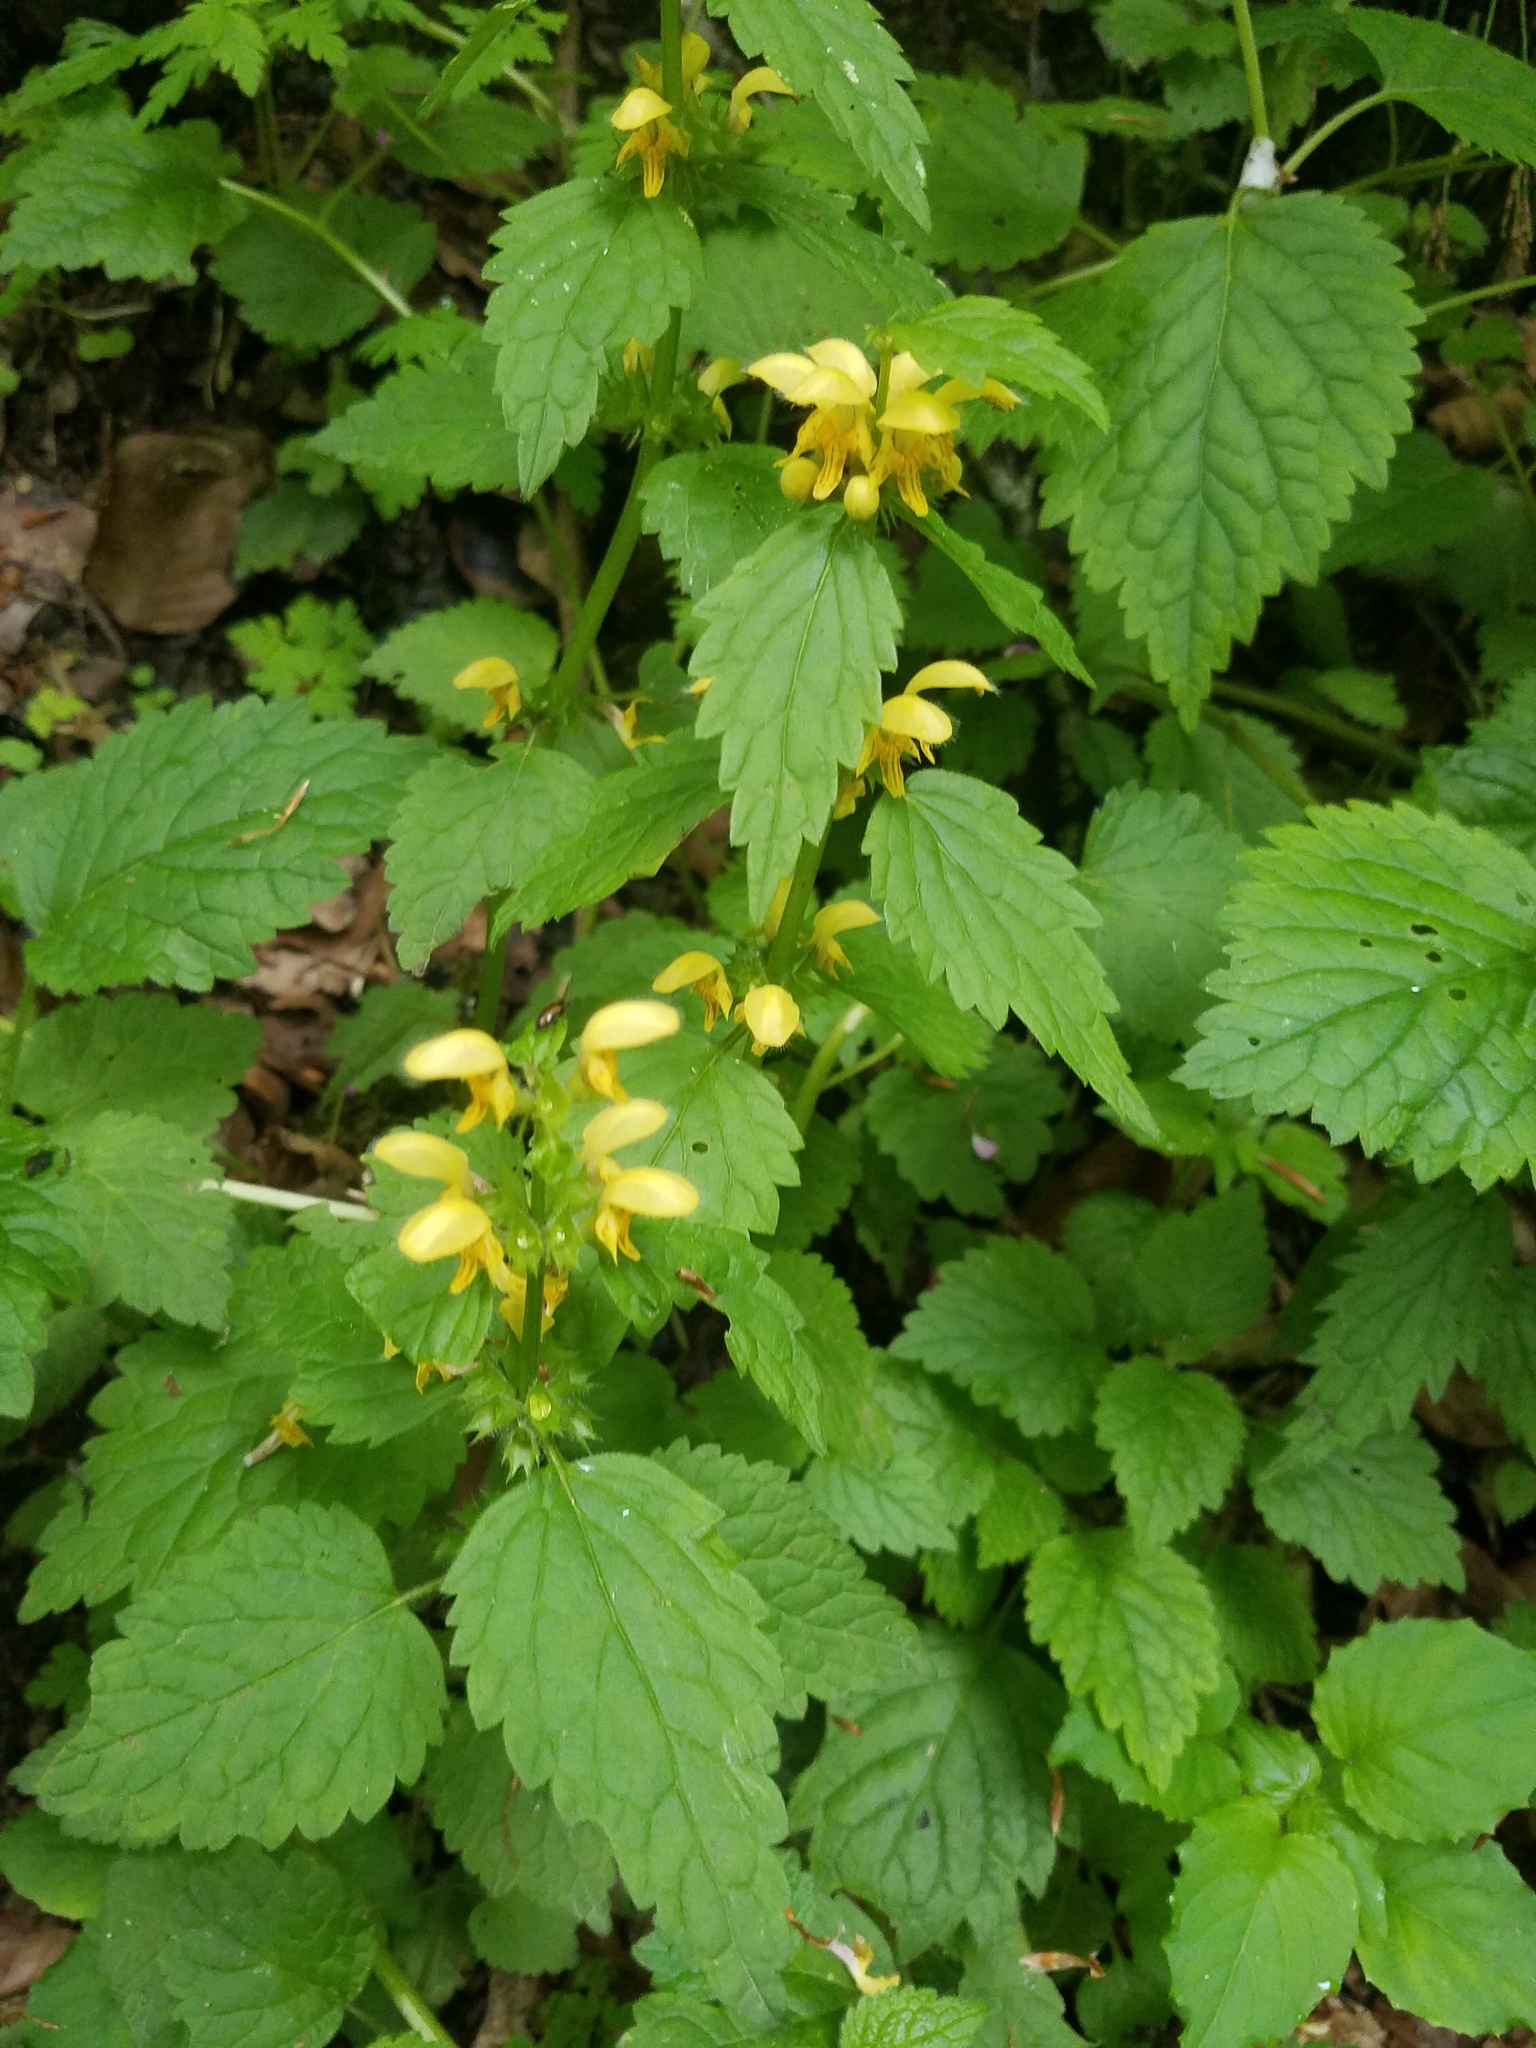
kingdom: Plantae
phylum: Tracheophyta
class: Magnoliopsida
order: Lamiales
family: Lamiaceae
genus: Lamium
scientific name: Lamium galeobdolon
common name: Yellow archangel
